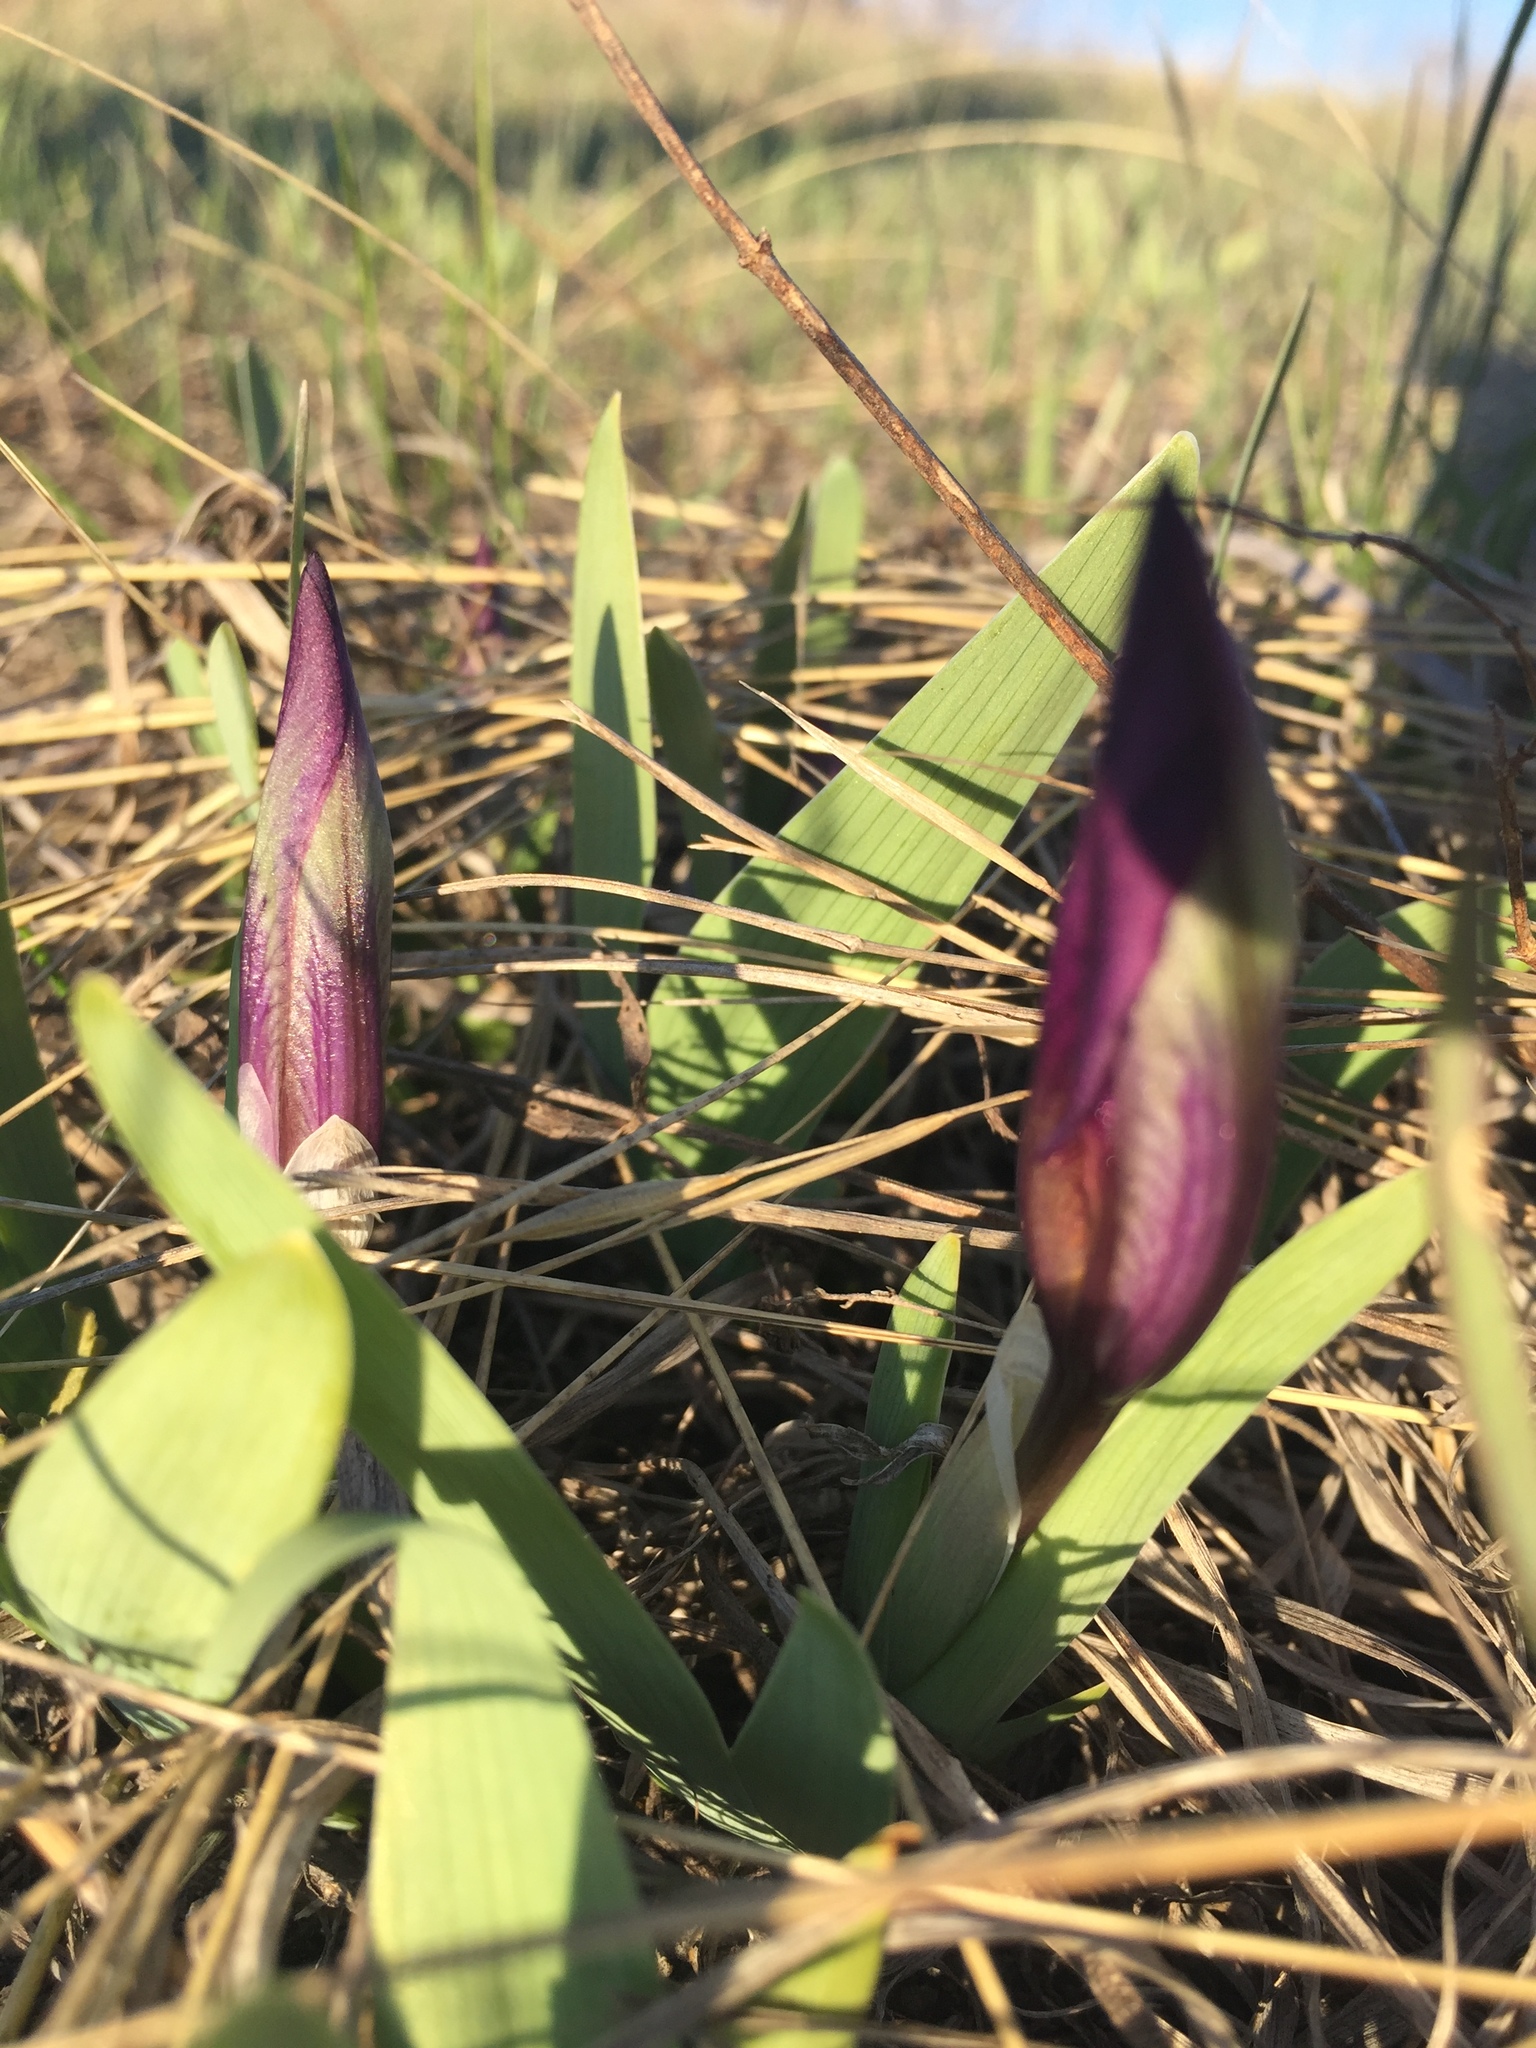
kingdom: Plantae
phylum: Tracheophyta
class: Liliopsida
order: Asparagales
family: Iridaceae
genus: Iris
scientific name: Iris pumila
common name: Dwarf iris
